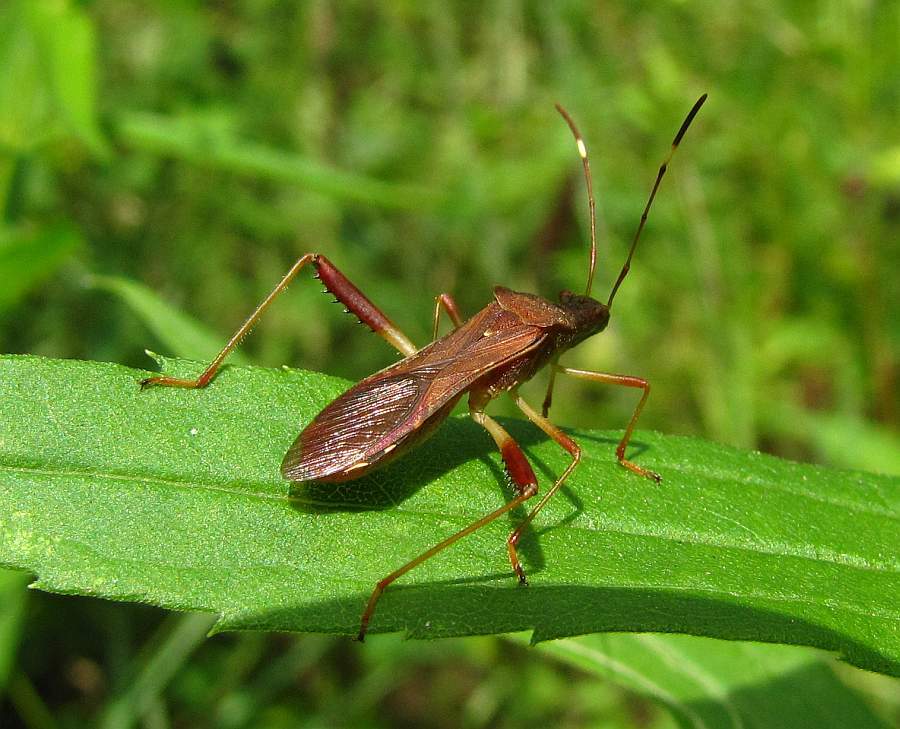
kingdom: Animalia
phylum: Arthropoda
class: Insecta
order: Hemiptera
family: Alydidae
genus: Megalotomus
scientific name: Megalotomus quinquespinosus
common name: Lupine bug
